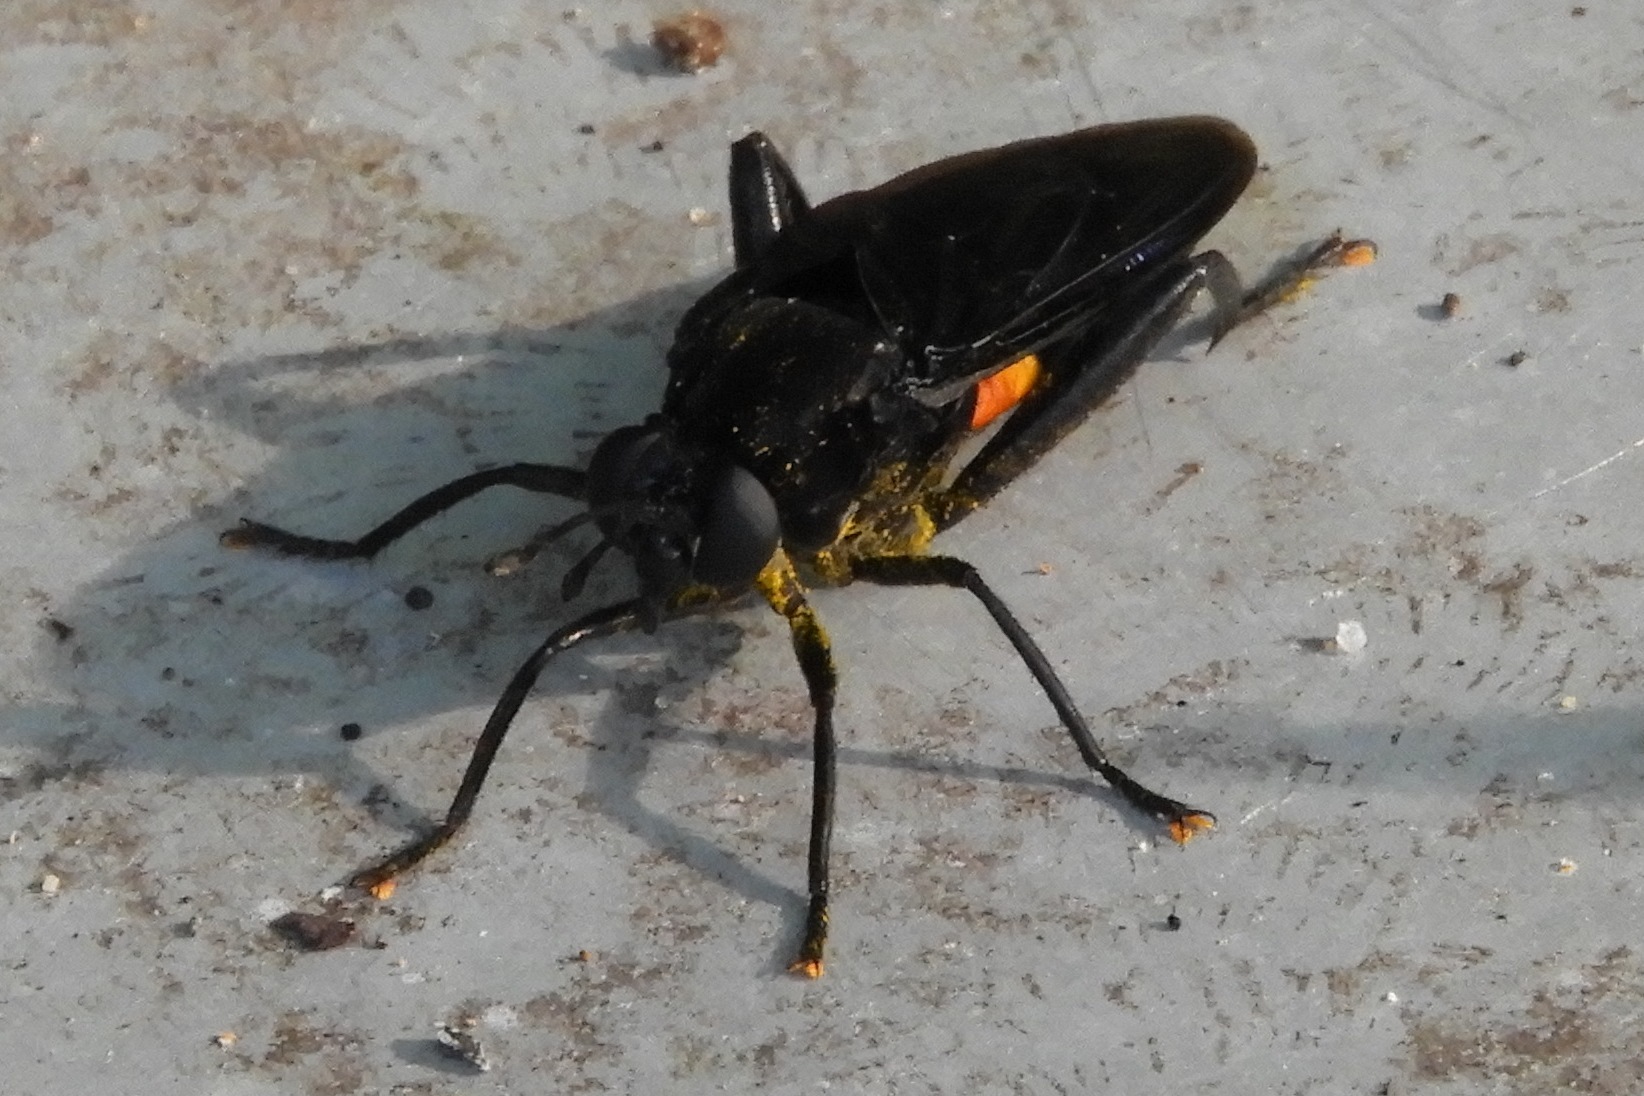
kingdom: Animalia
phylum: Arthropoda
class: Insecta
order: Diptera
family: Mydidae
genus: Mydas
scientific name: Mydas clavatus
